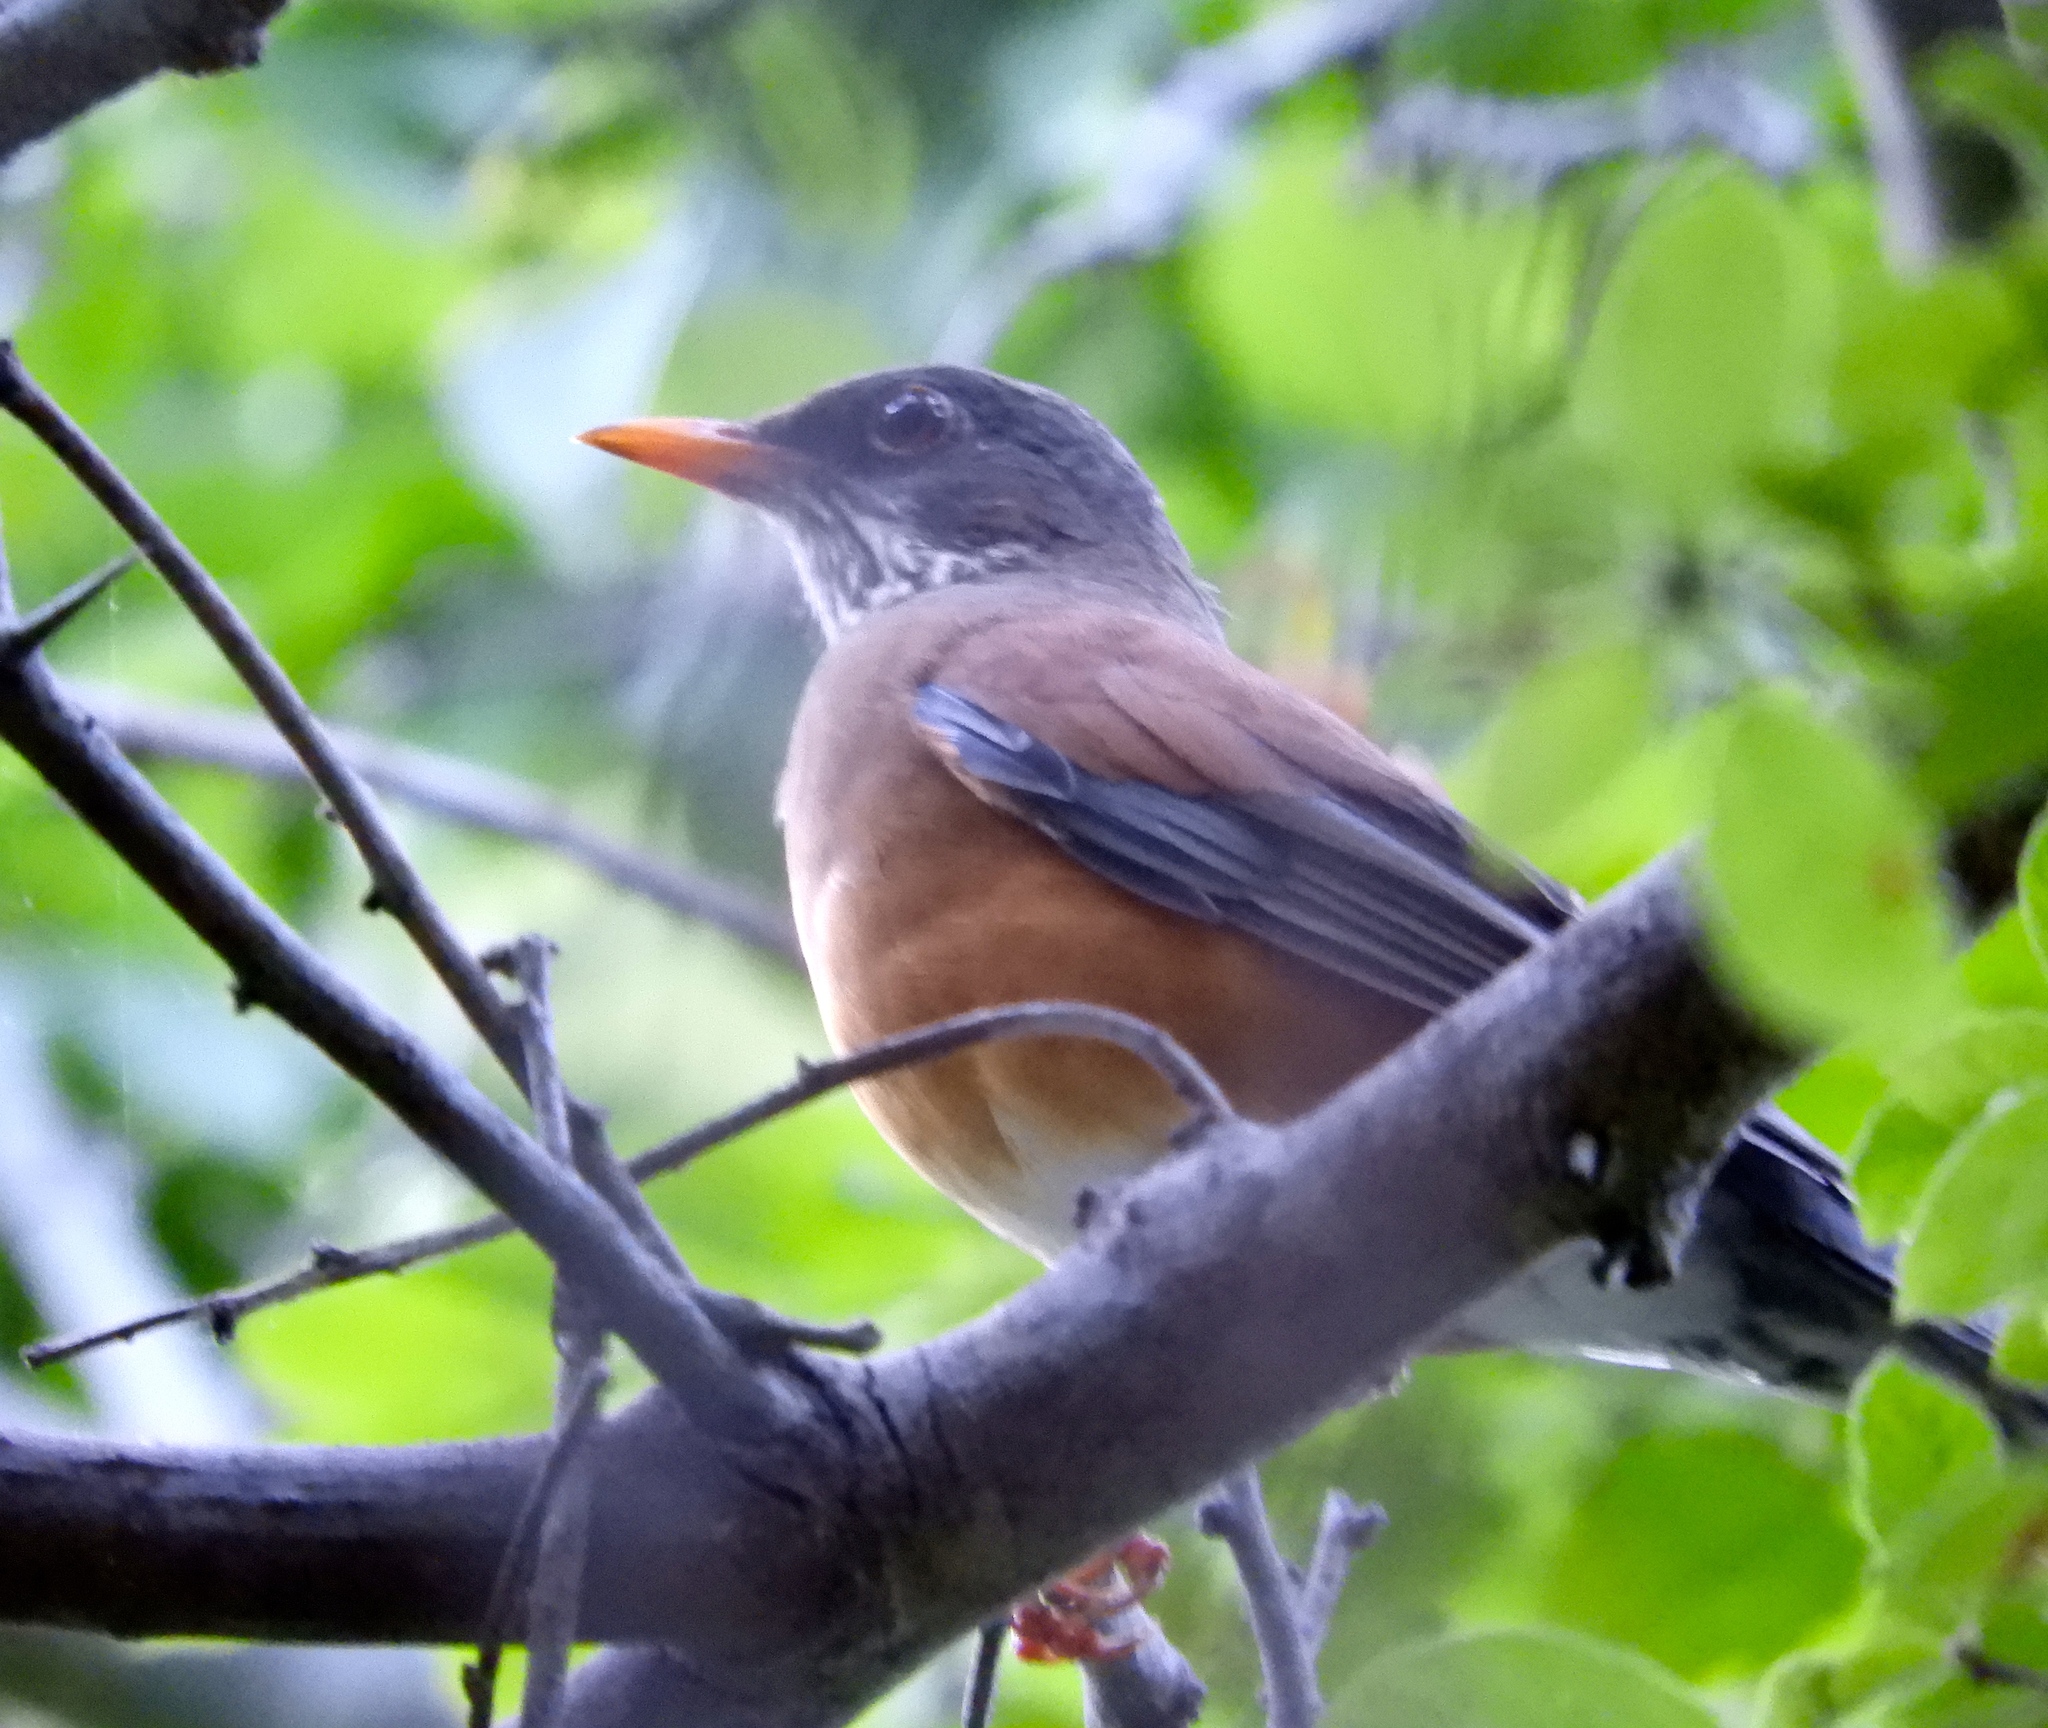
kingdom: Animalia
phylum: Chordata
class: Aves
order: Passeriformes
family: Turdidae
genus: Turdus
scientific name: Turdus rufopalliatus
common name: Rufous-backed robin
